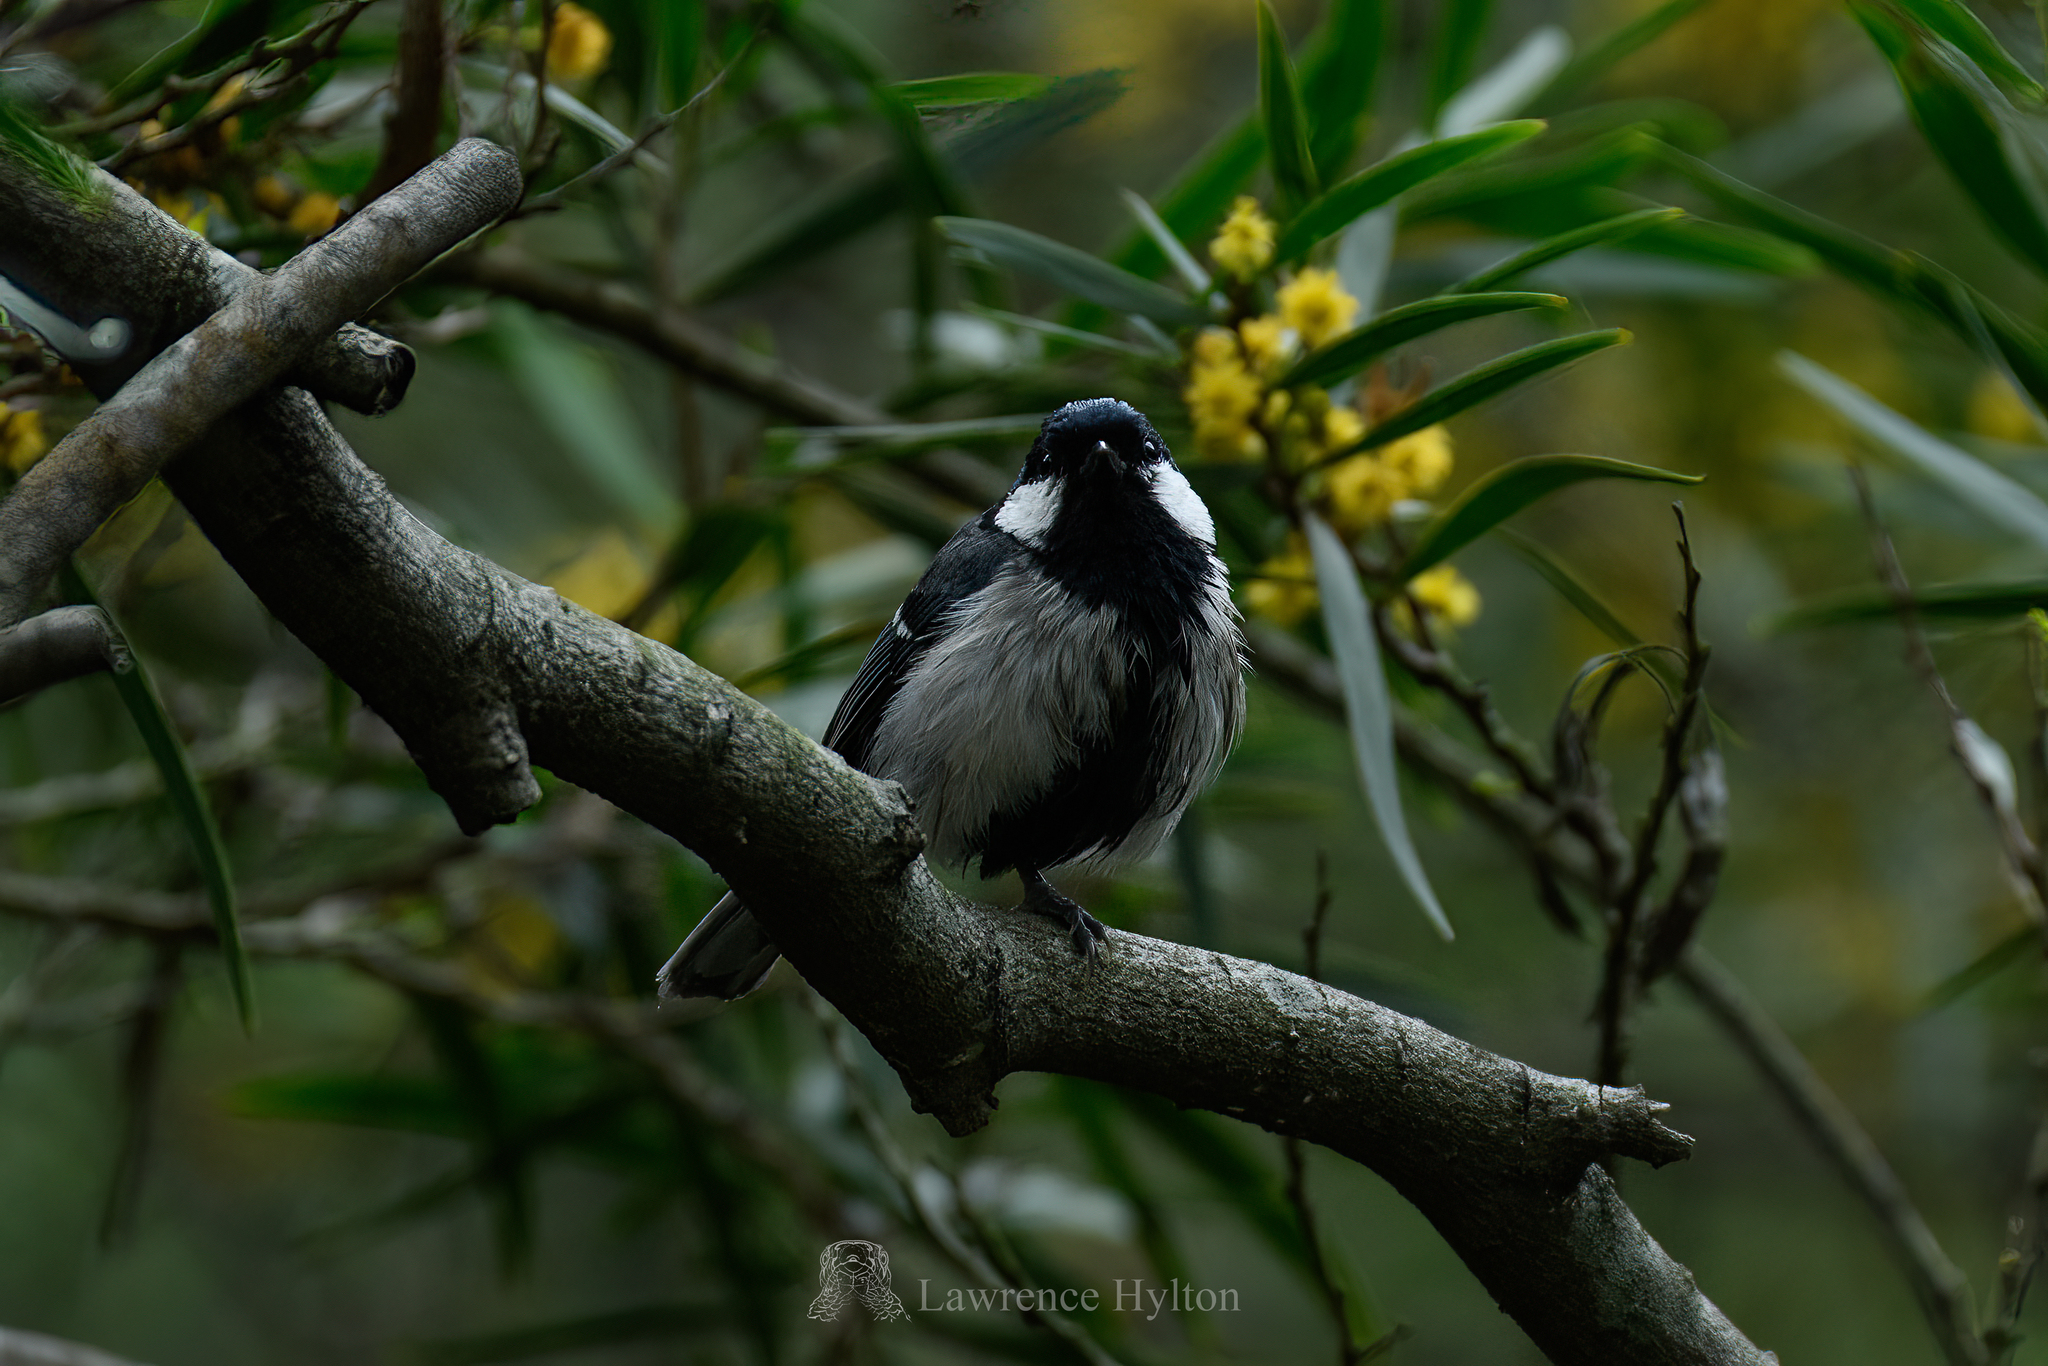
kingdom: Animalia
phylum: Chordata
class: Aves
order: Passeriformes
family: Paridae
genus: Parus
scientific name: Parus minor
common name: Japanese tit
